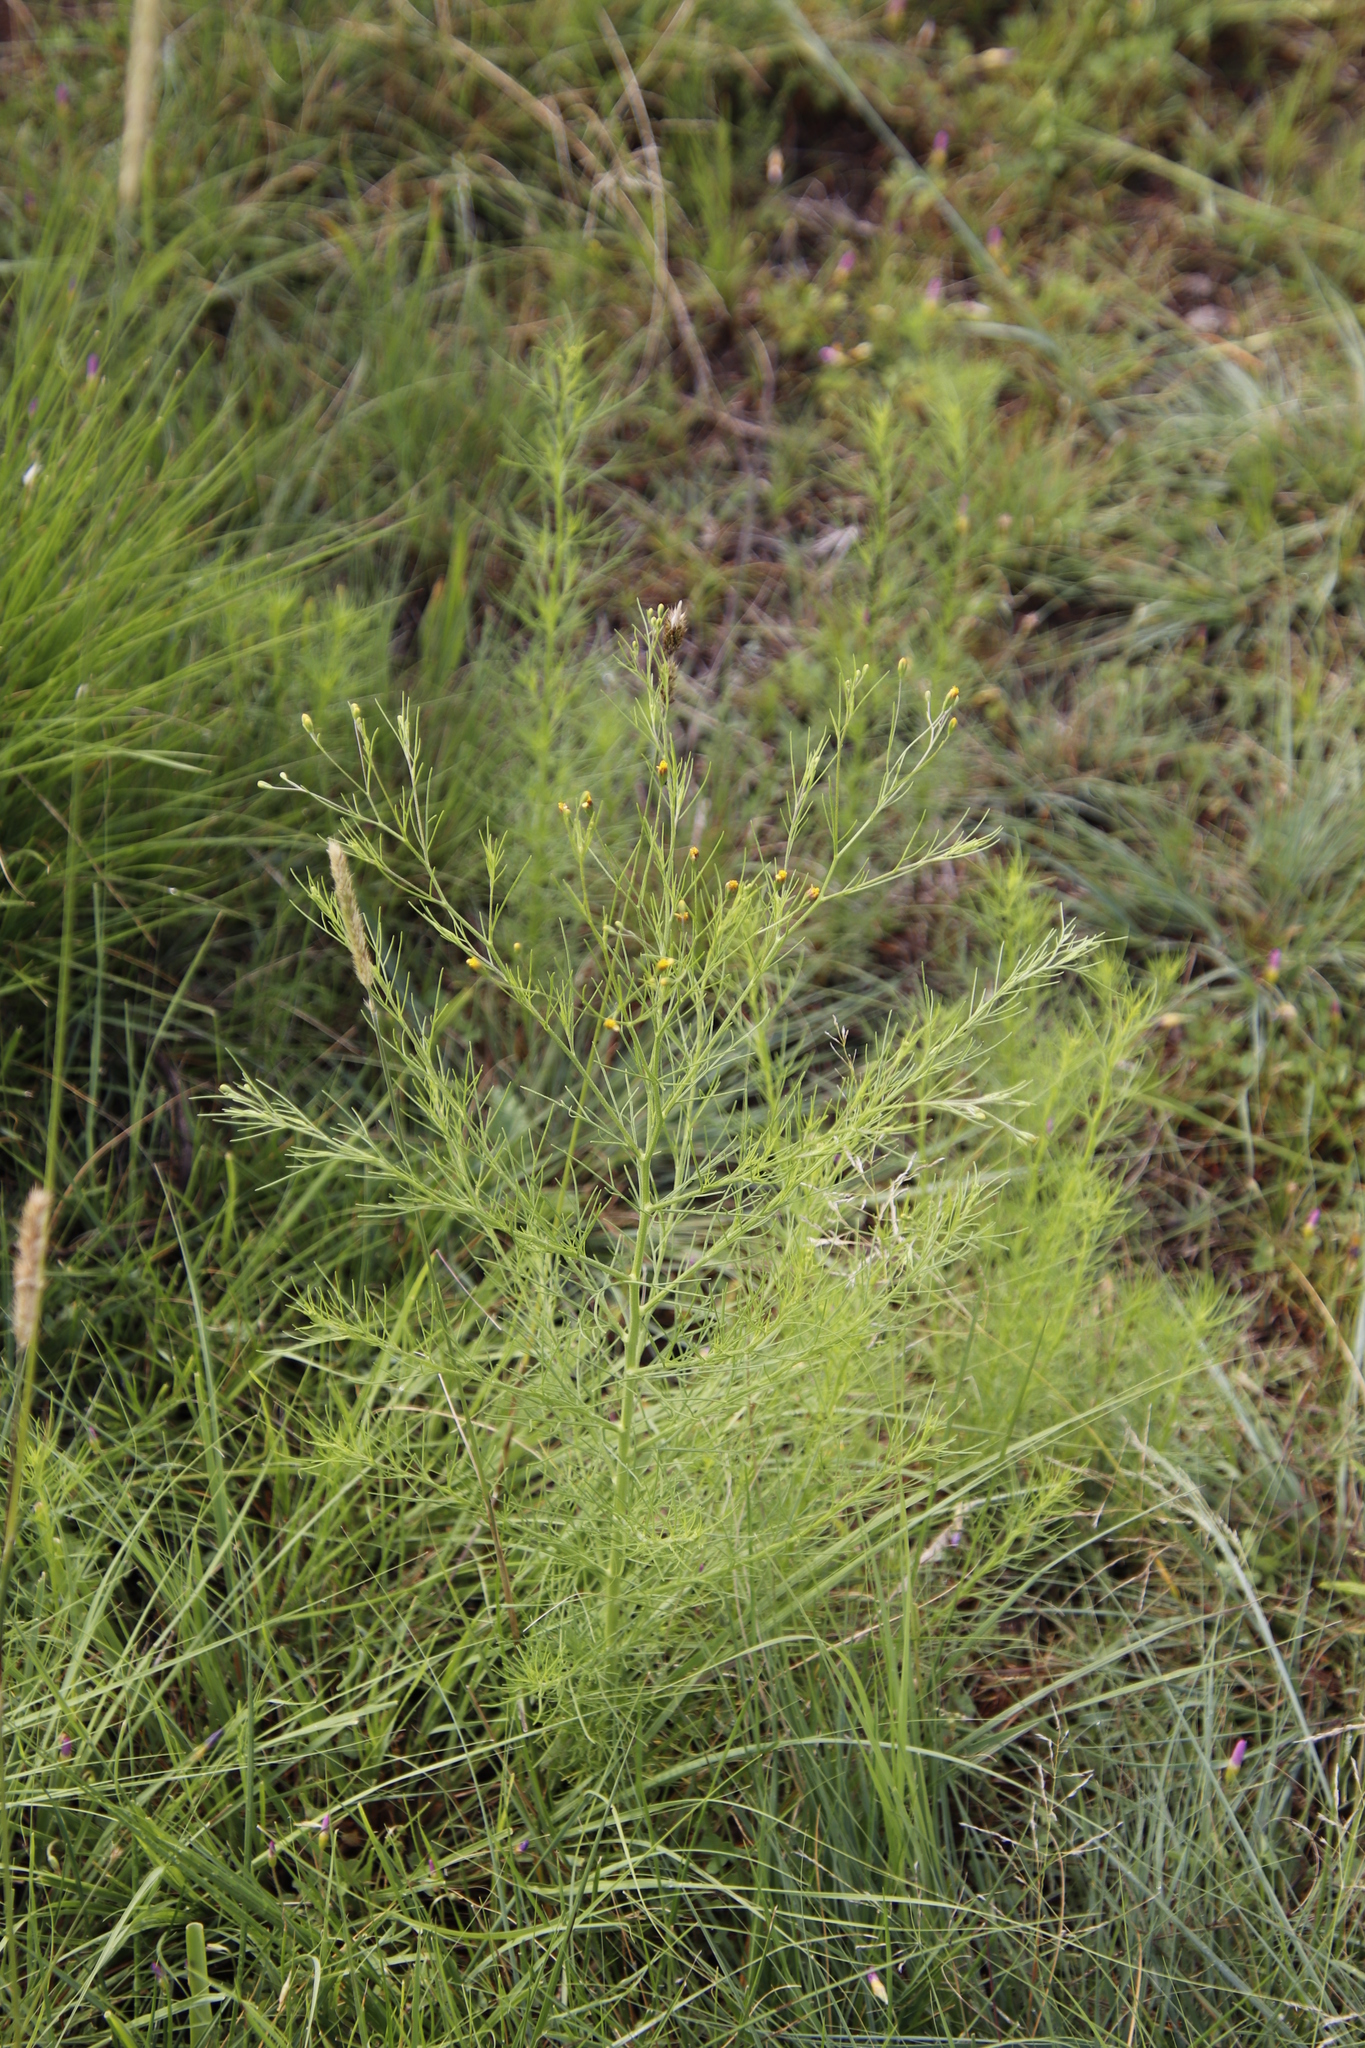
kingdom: Plantae
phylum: Tracheophyta
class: Magnoliopsida
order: Asterales
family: Asteraceae
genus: Schkuhria
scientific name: Schkuhria pinnata
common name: Dwarf marigold
